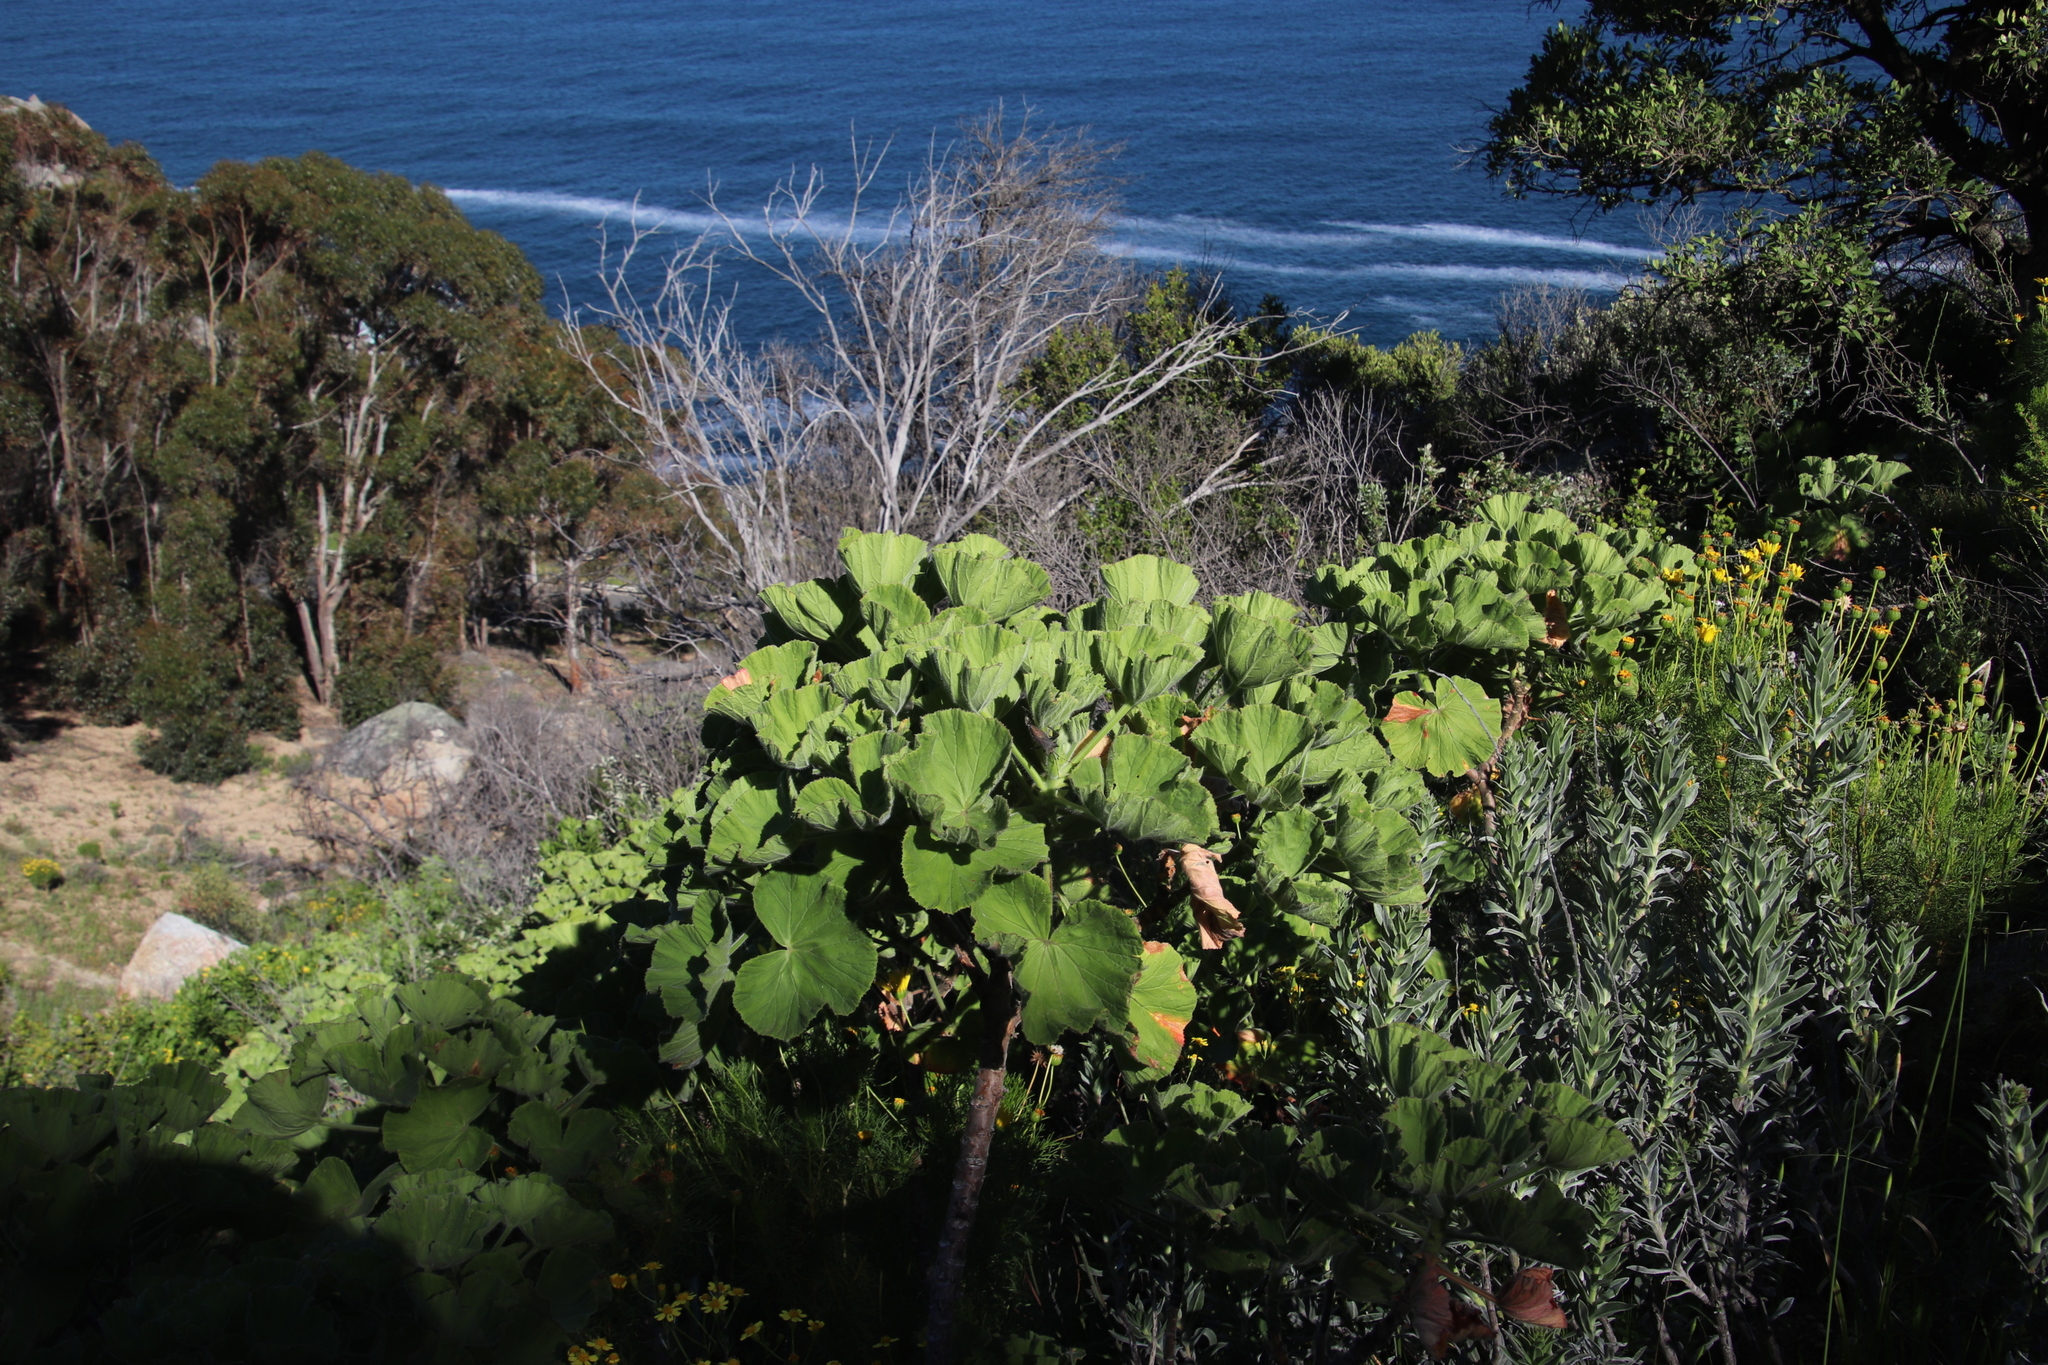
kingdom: Plantae
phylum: Tracheophyta
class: Magnoliopsida
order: Geraniales
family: Geraniaceae
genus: Pelargonium
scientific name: Pelargonium cucullatum
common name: Tree pelargonium
